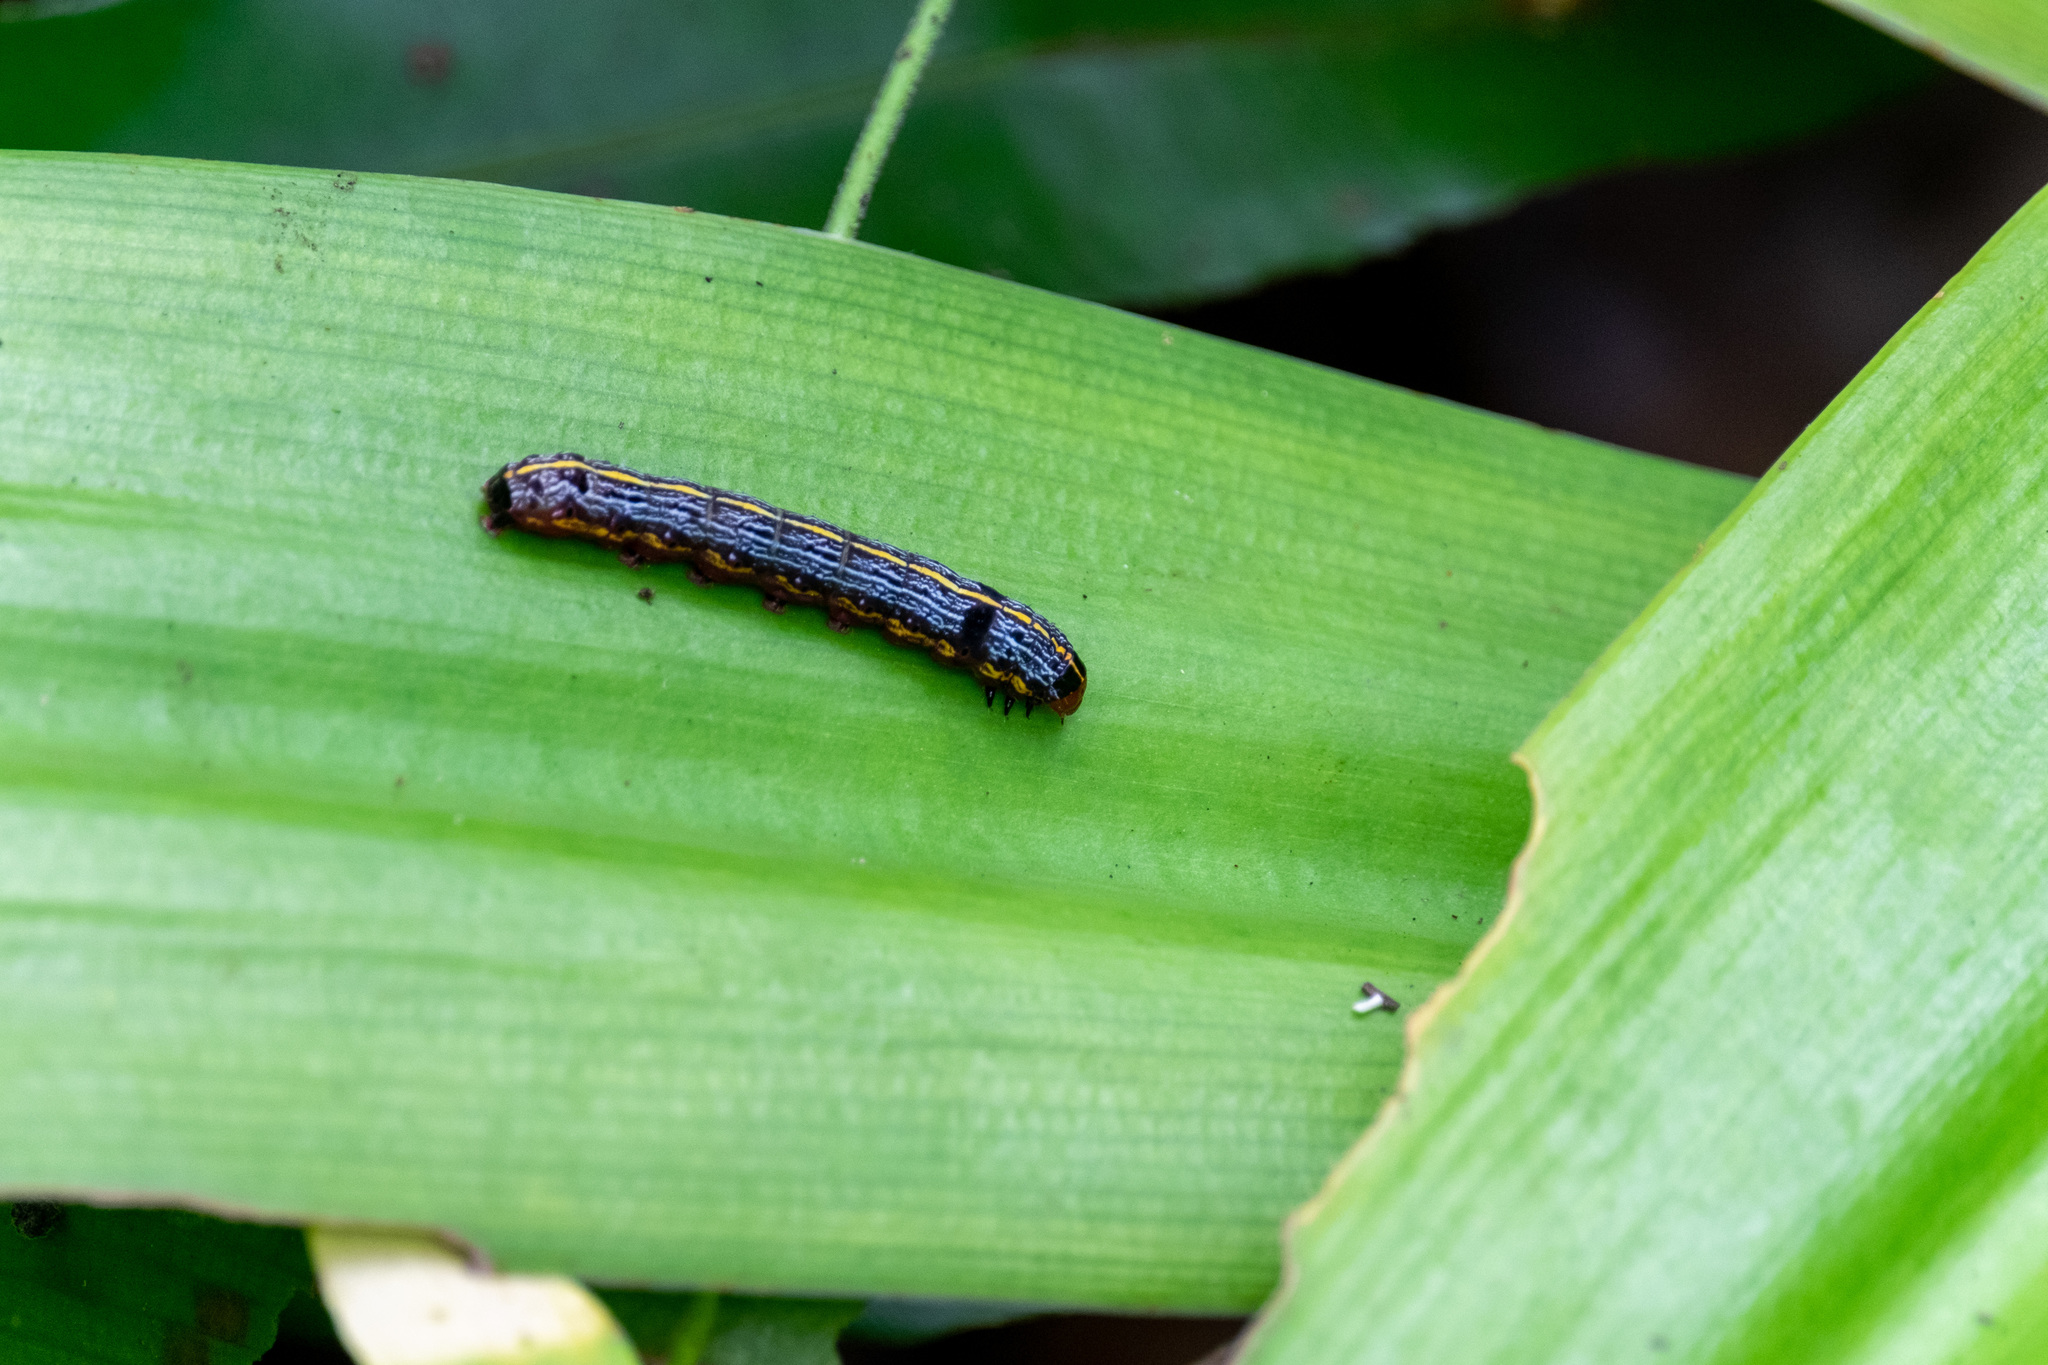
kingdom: Animalia
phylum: Arthropoda
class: Insecta
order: Lepidoptera
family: Noctuidae
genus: Spodoptera
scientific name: Spodoptera picta
